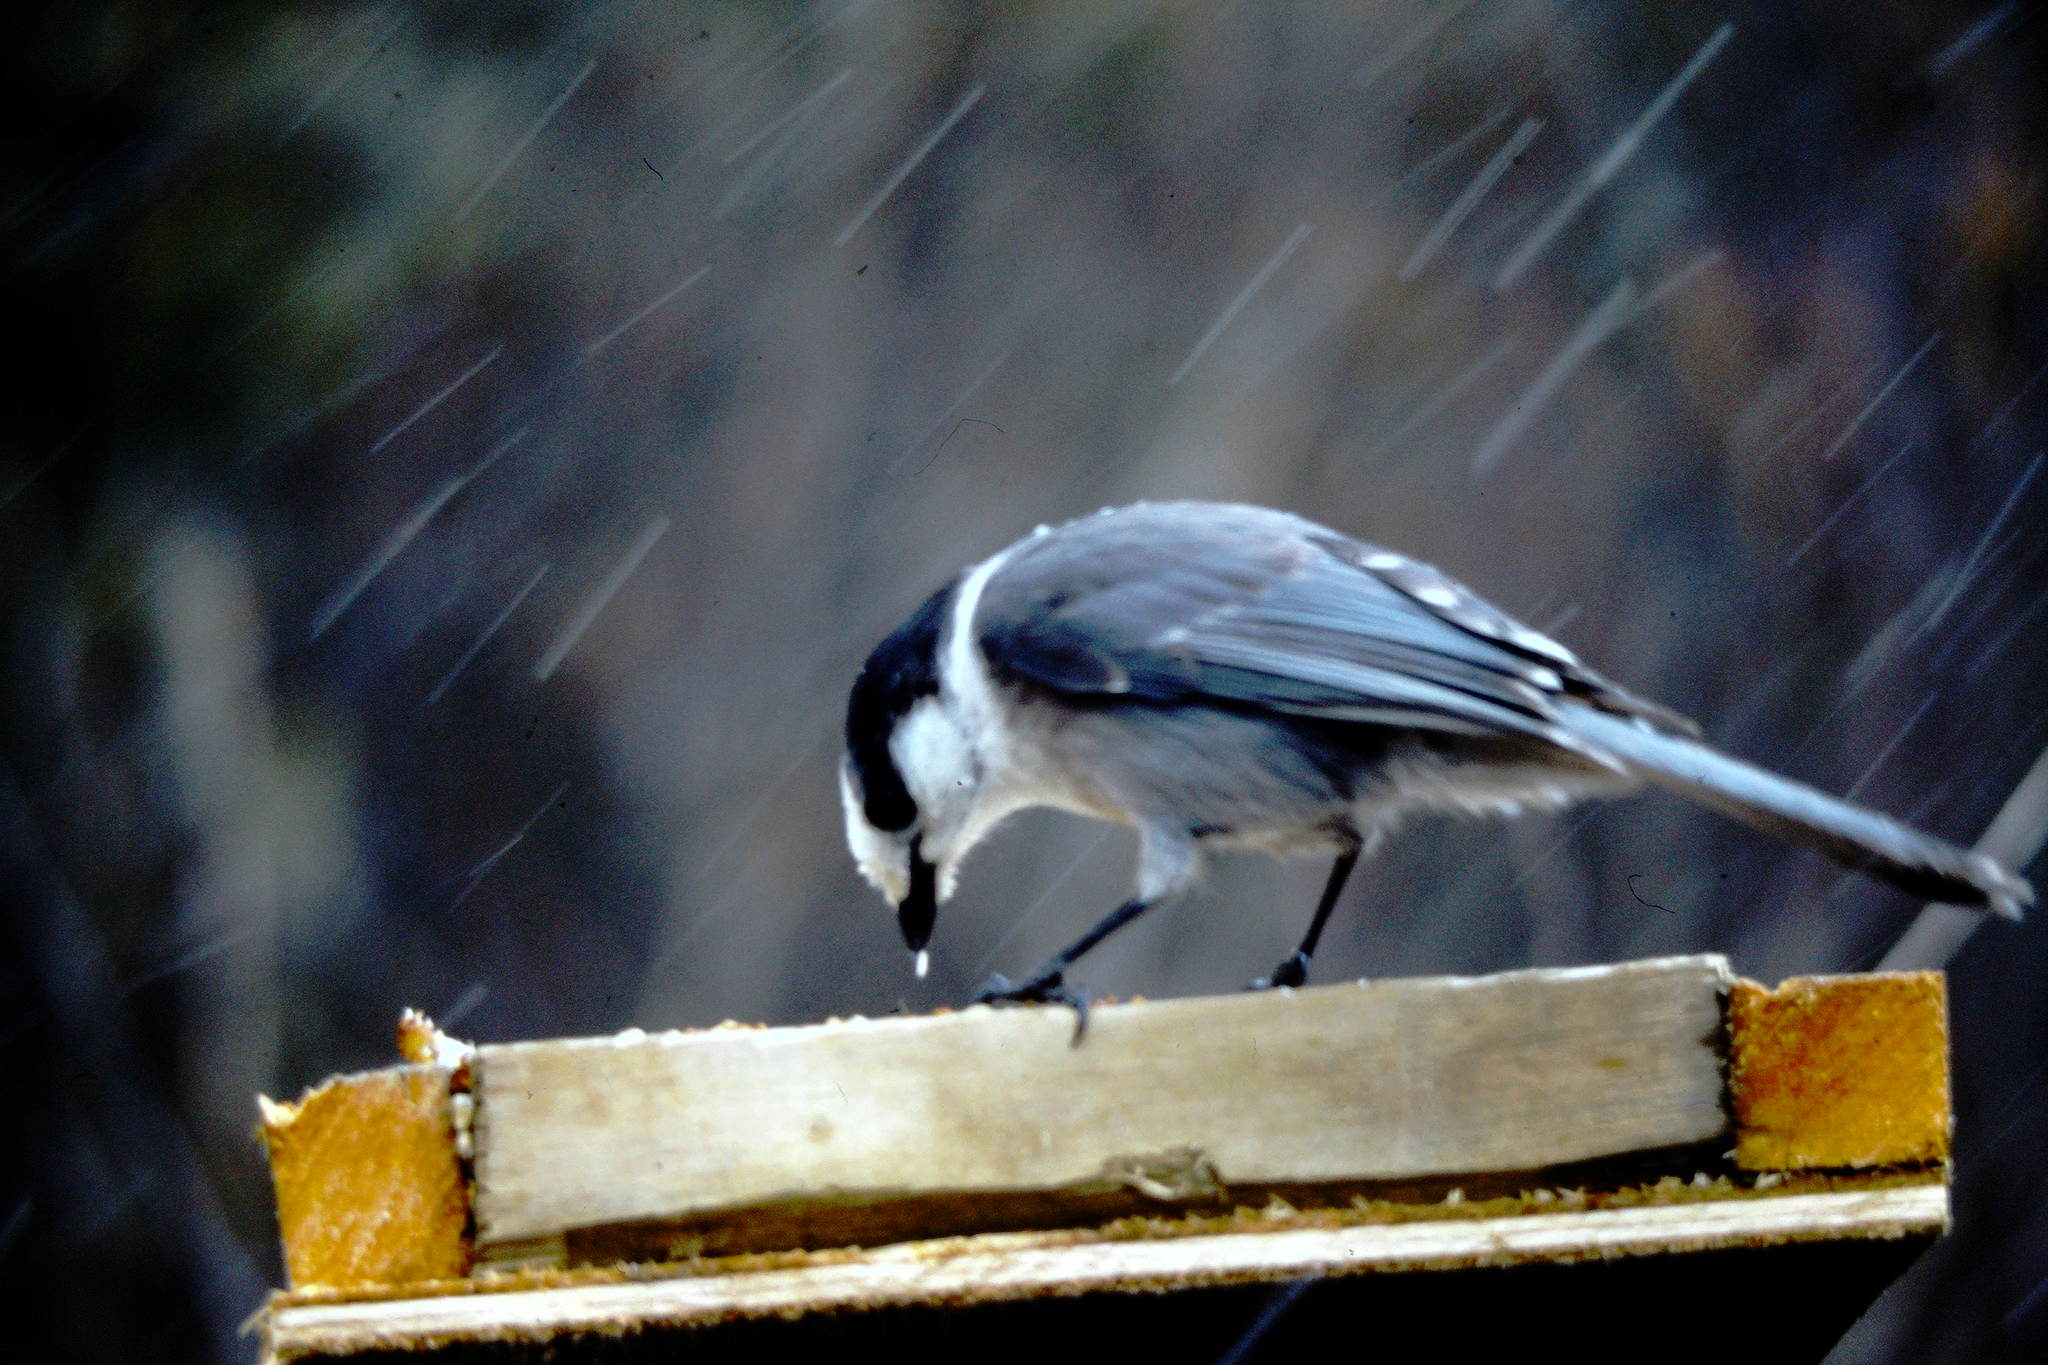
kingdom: Animalia
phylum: Chordata
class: Aves
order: Passeriformes
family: Corvidae
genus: Perisoreus
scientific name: Perisoreus canadensis
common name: Gray jay
